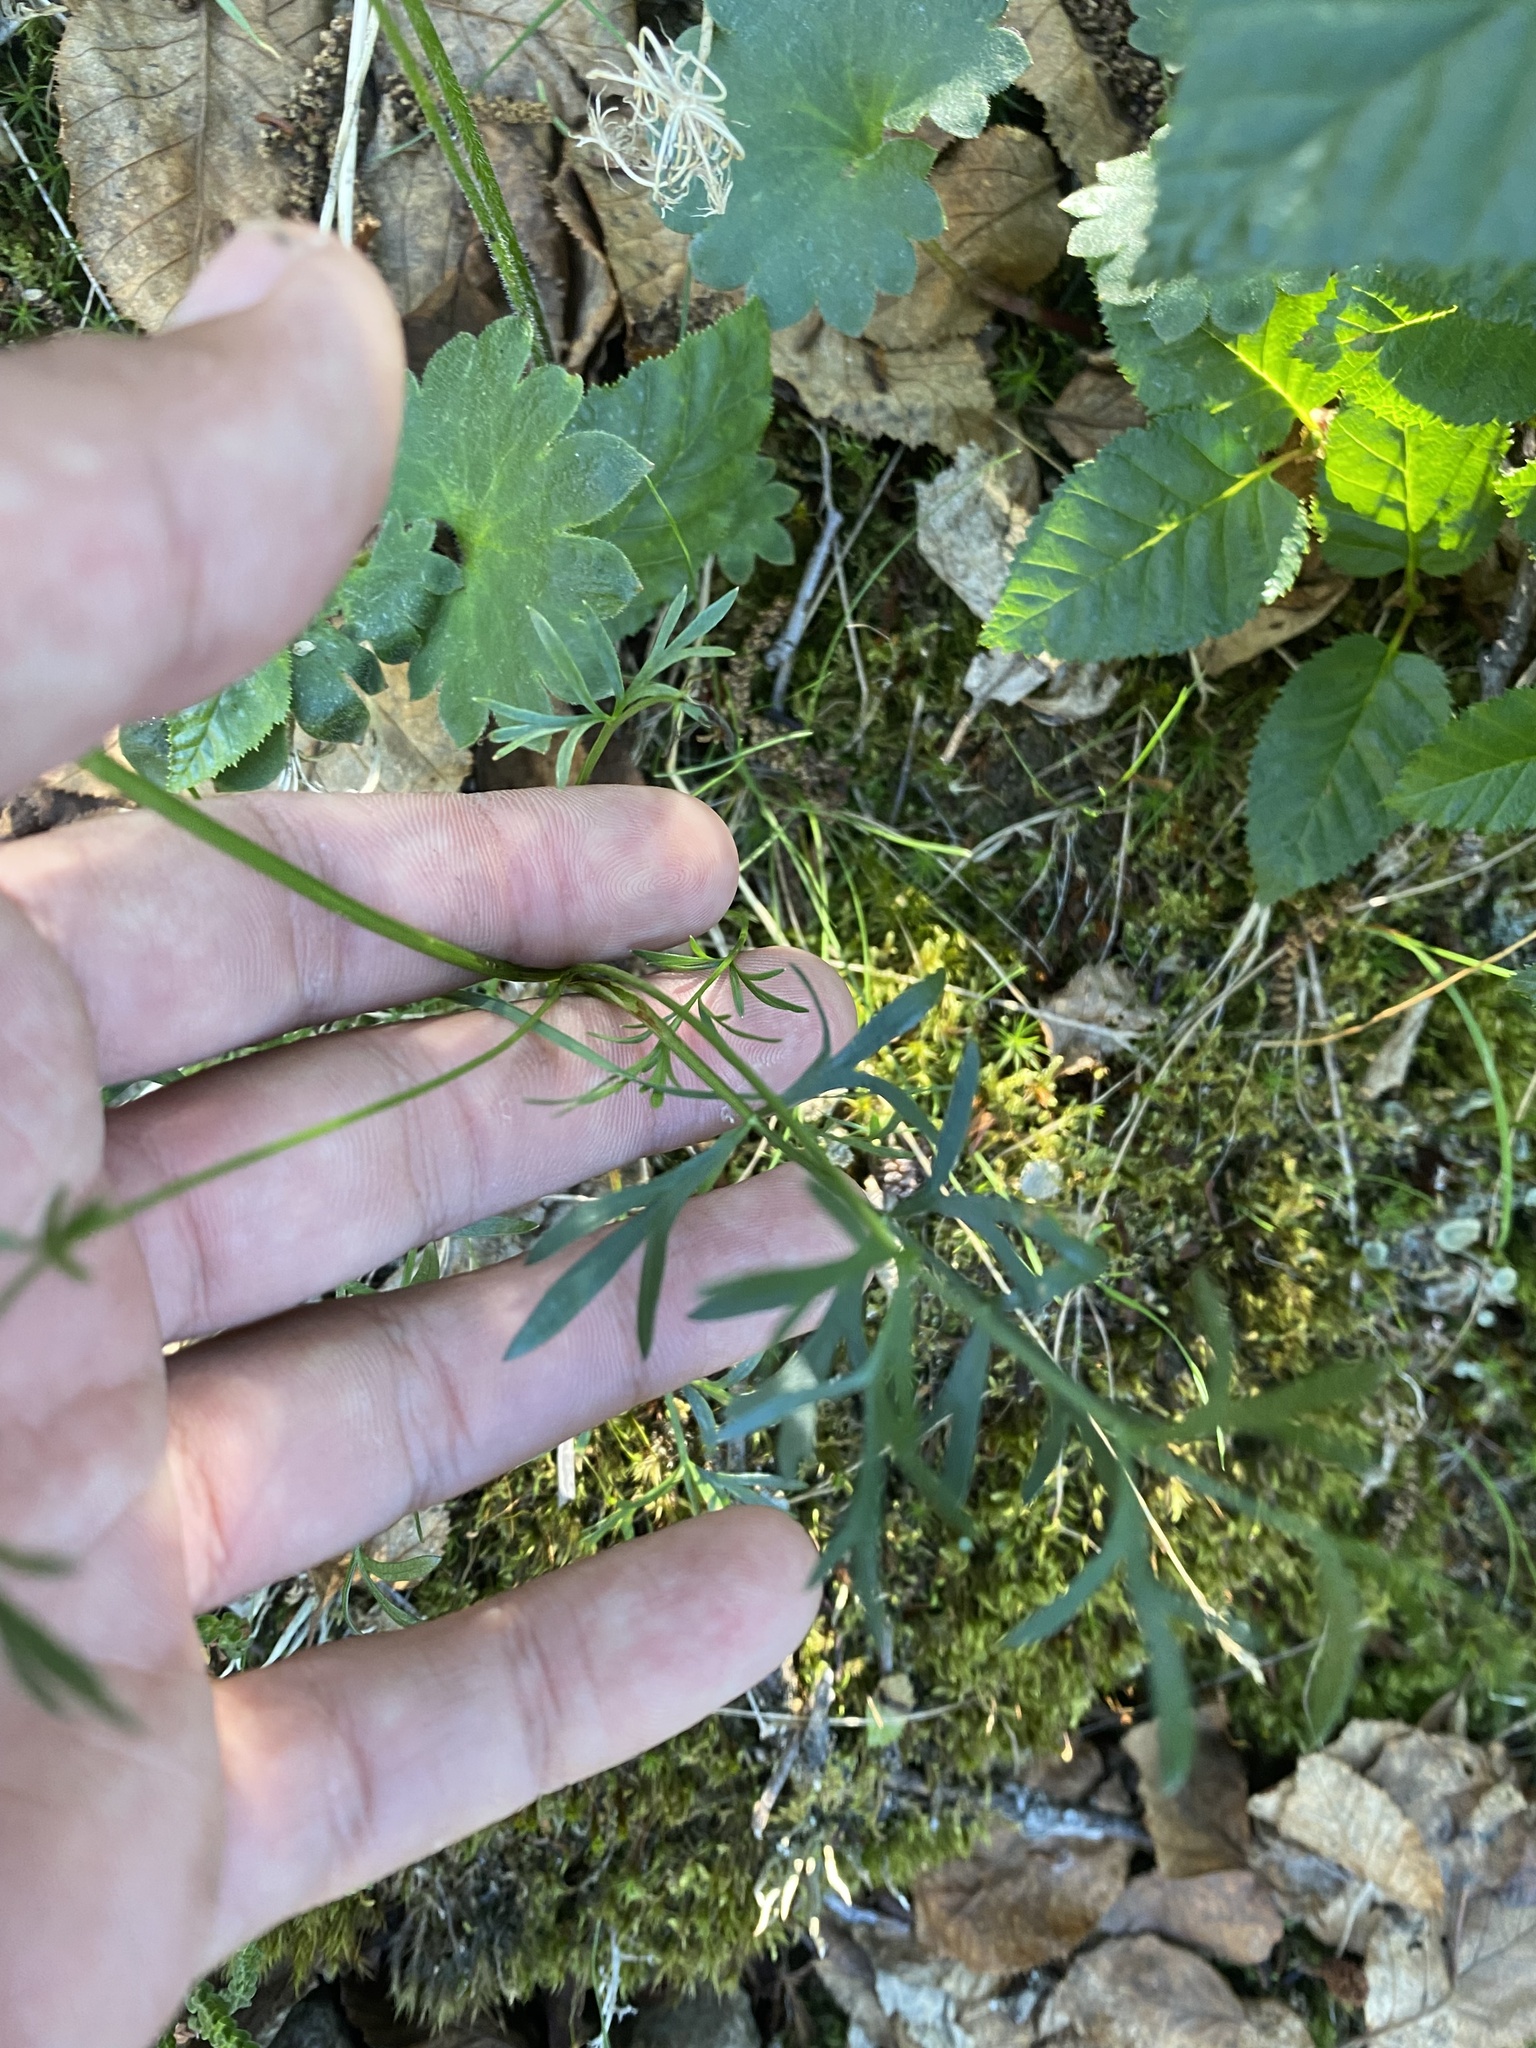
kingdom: Plantae
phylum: Tracheophyta
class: Magnoliopsida
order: Apiales
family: Apiaceae
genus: Pachypleurum
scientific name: Pachypleurum mutellinoides
